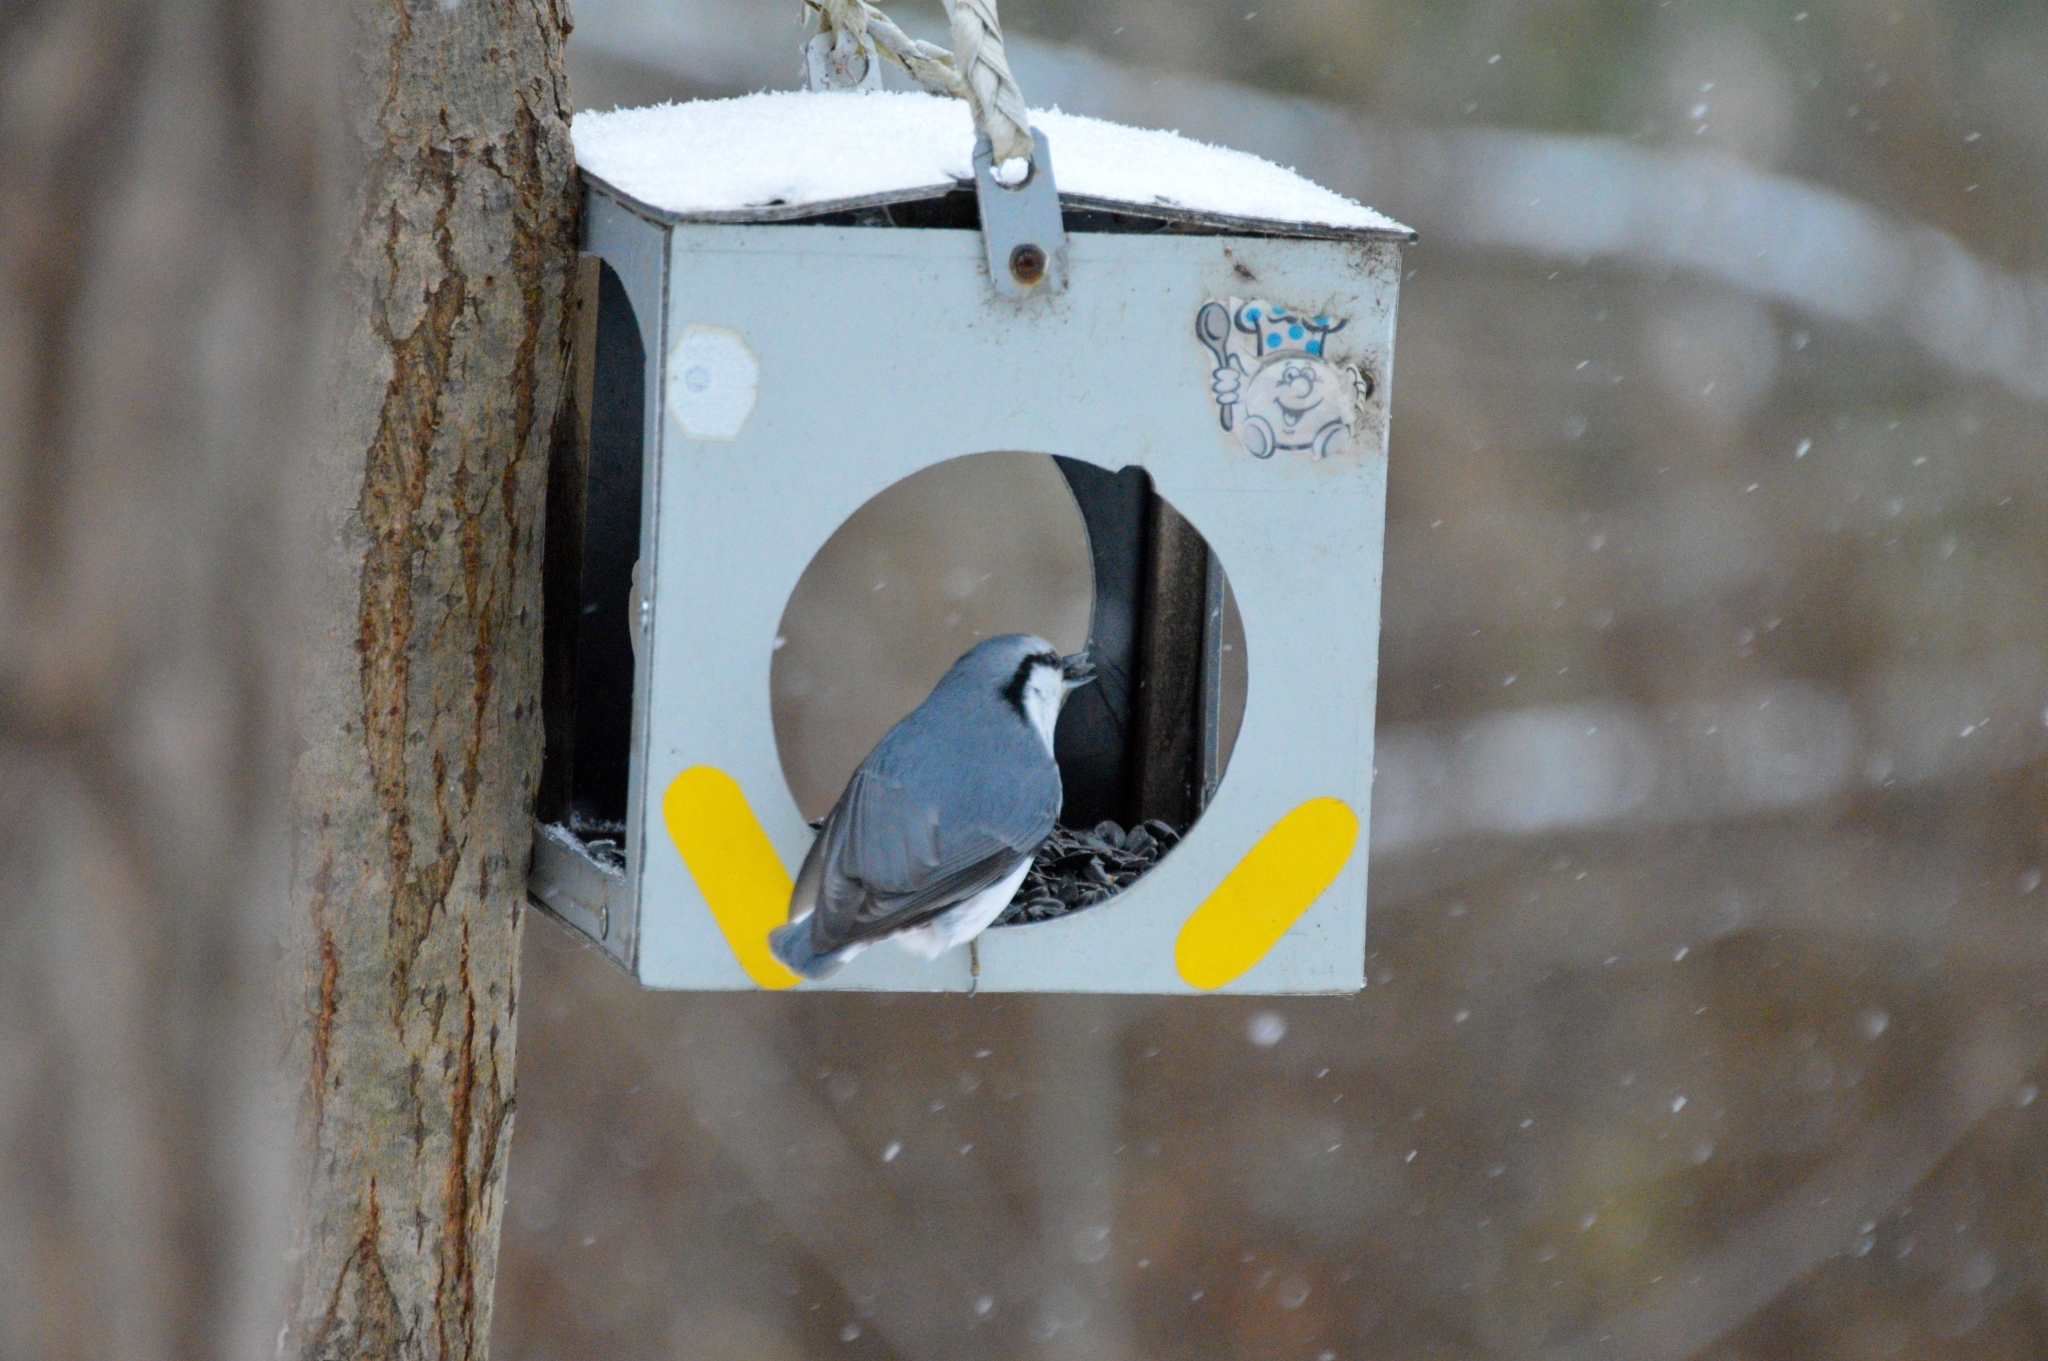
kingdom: Animalia
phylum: Chordata
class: Aves
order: Passeriformes
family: Sittidae
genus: Sitta
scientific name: Sitta europaea
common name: Eurasian nuthatch
